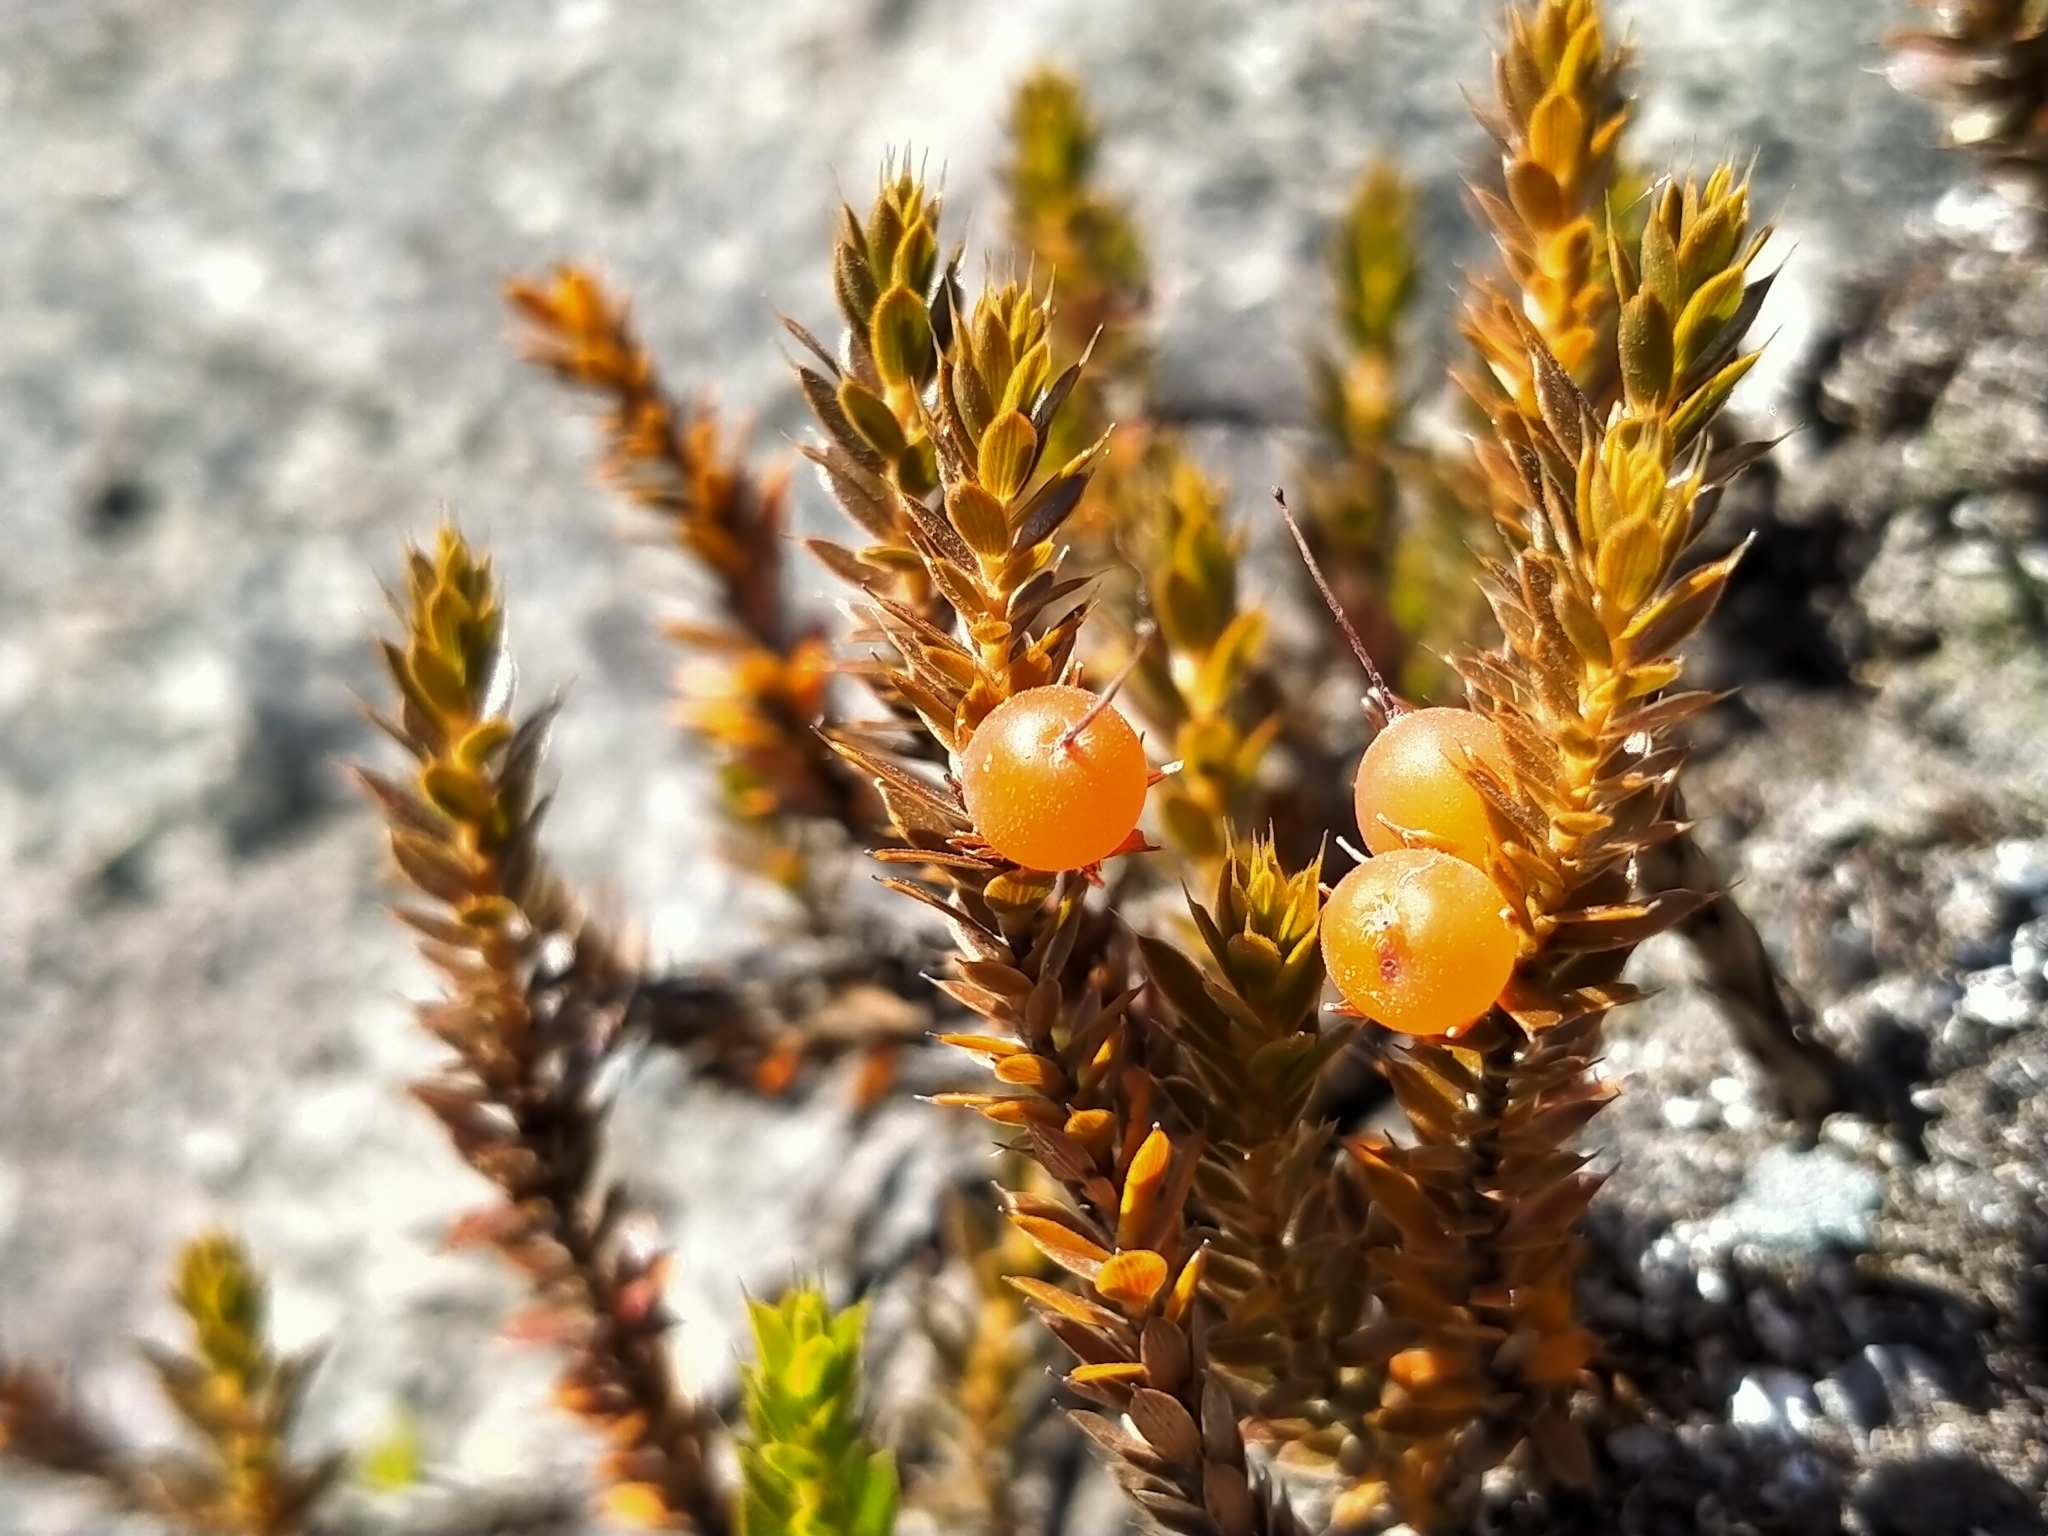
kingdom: Plantae
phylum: Tracheophyta
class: Magnoliopsida
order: Ericales
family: Ericaceae
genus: Styphelia
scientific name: Styphelia nesophila
